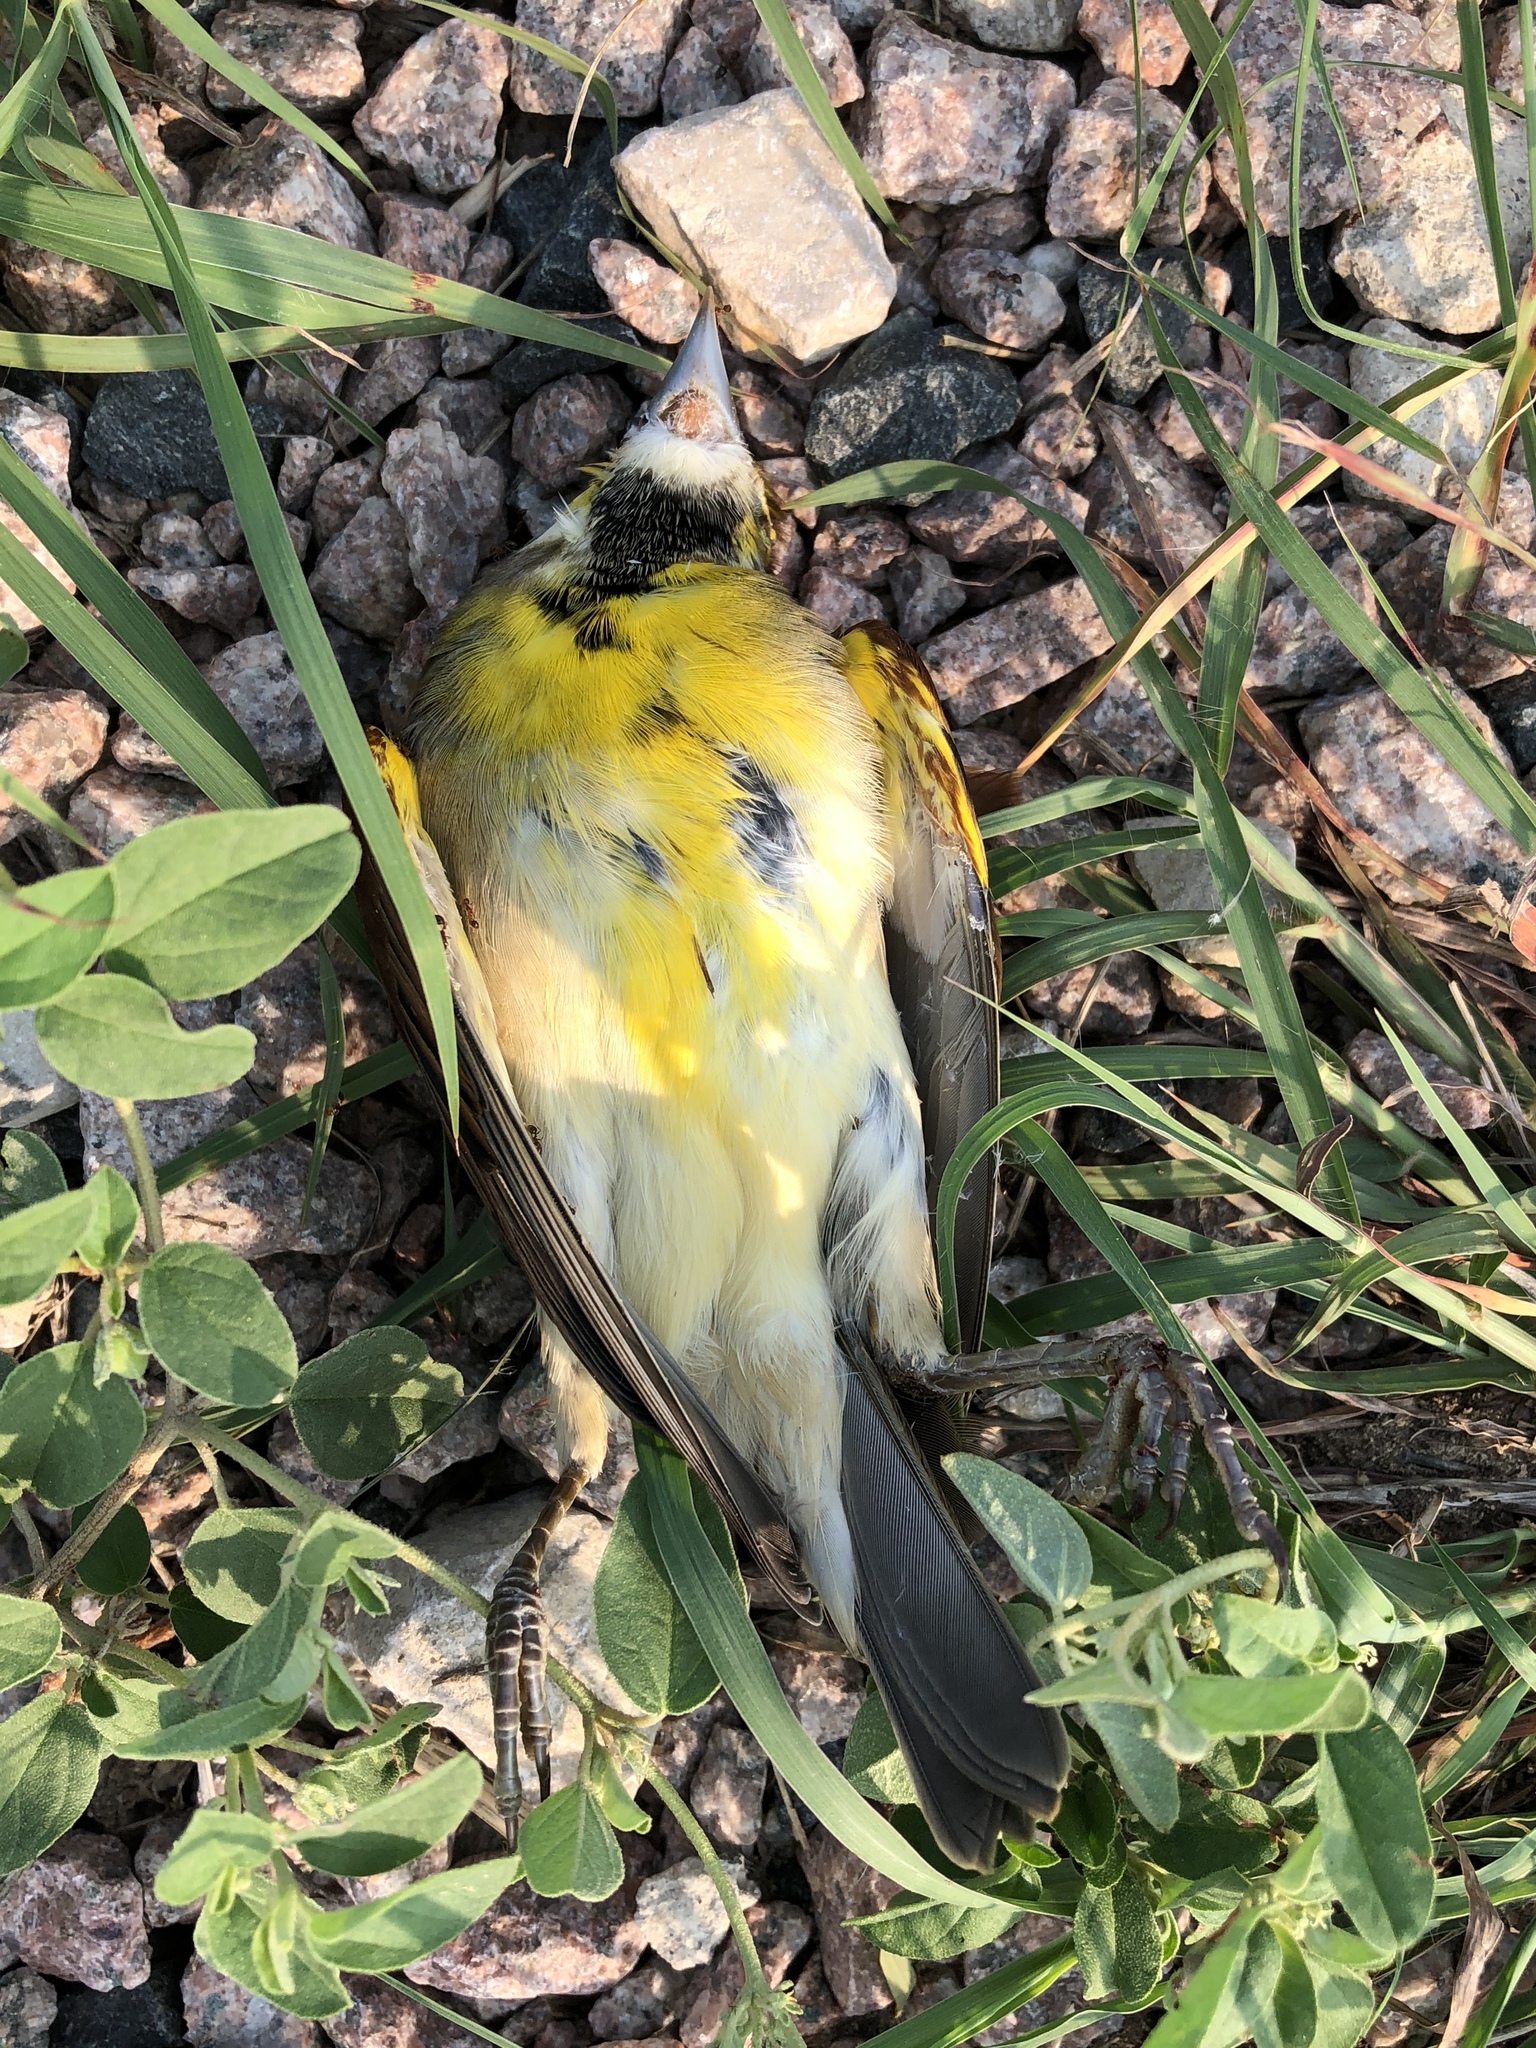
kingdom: Animalia
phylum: Chordata
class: Aves
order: Passeriformes
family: Cardinalidae
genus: Spiza
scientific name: Spiza americana
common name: Dickcissel
